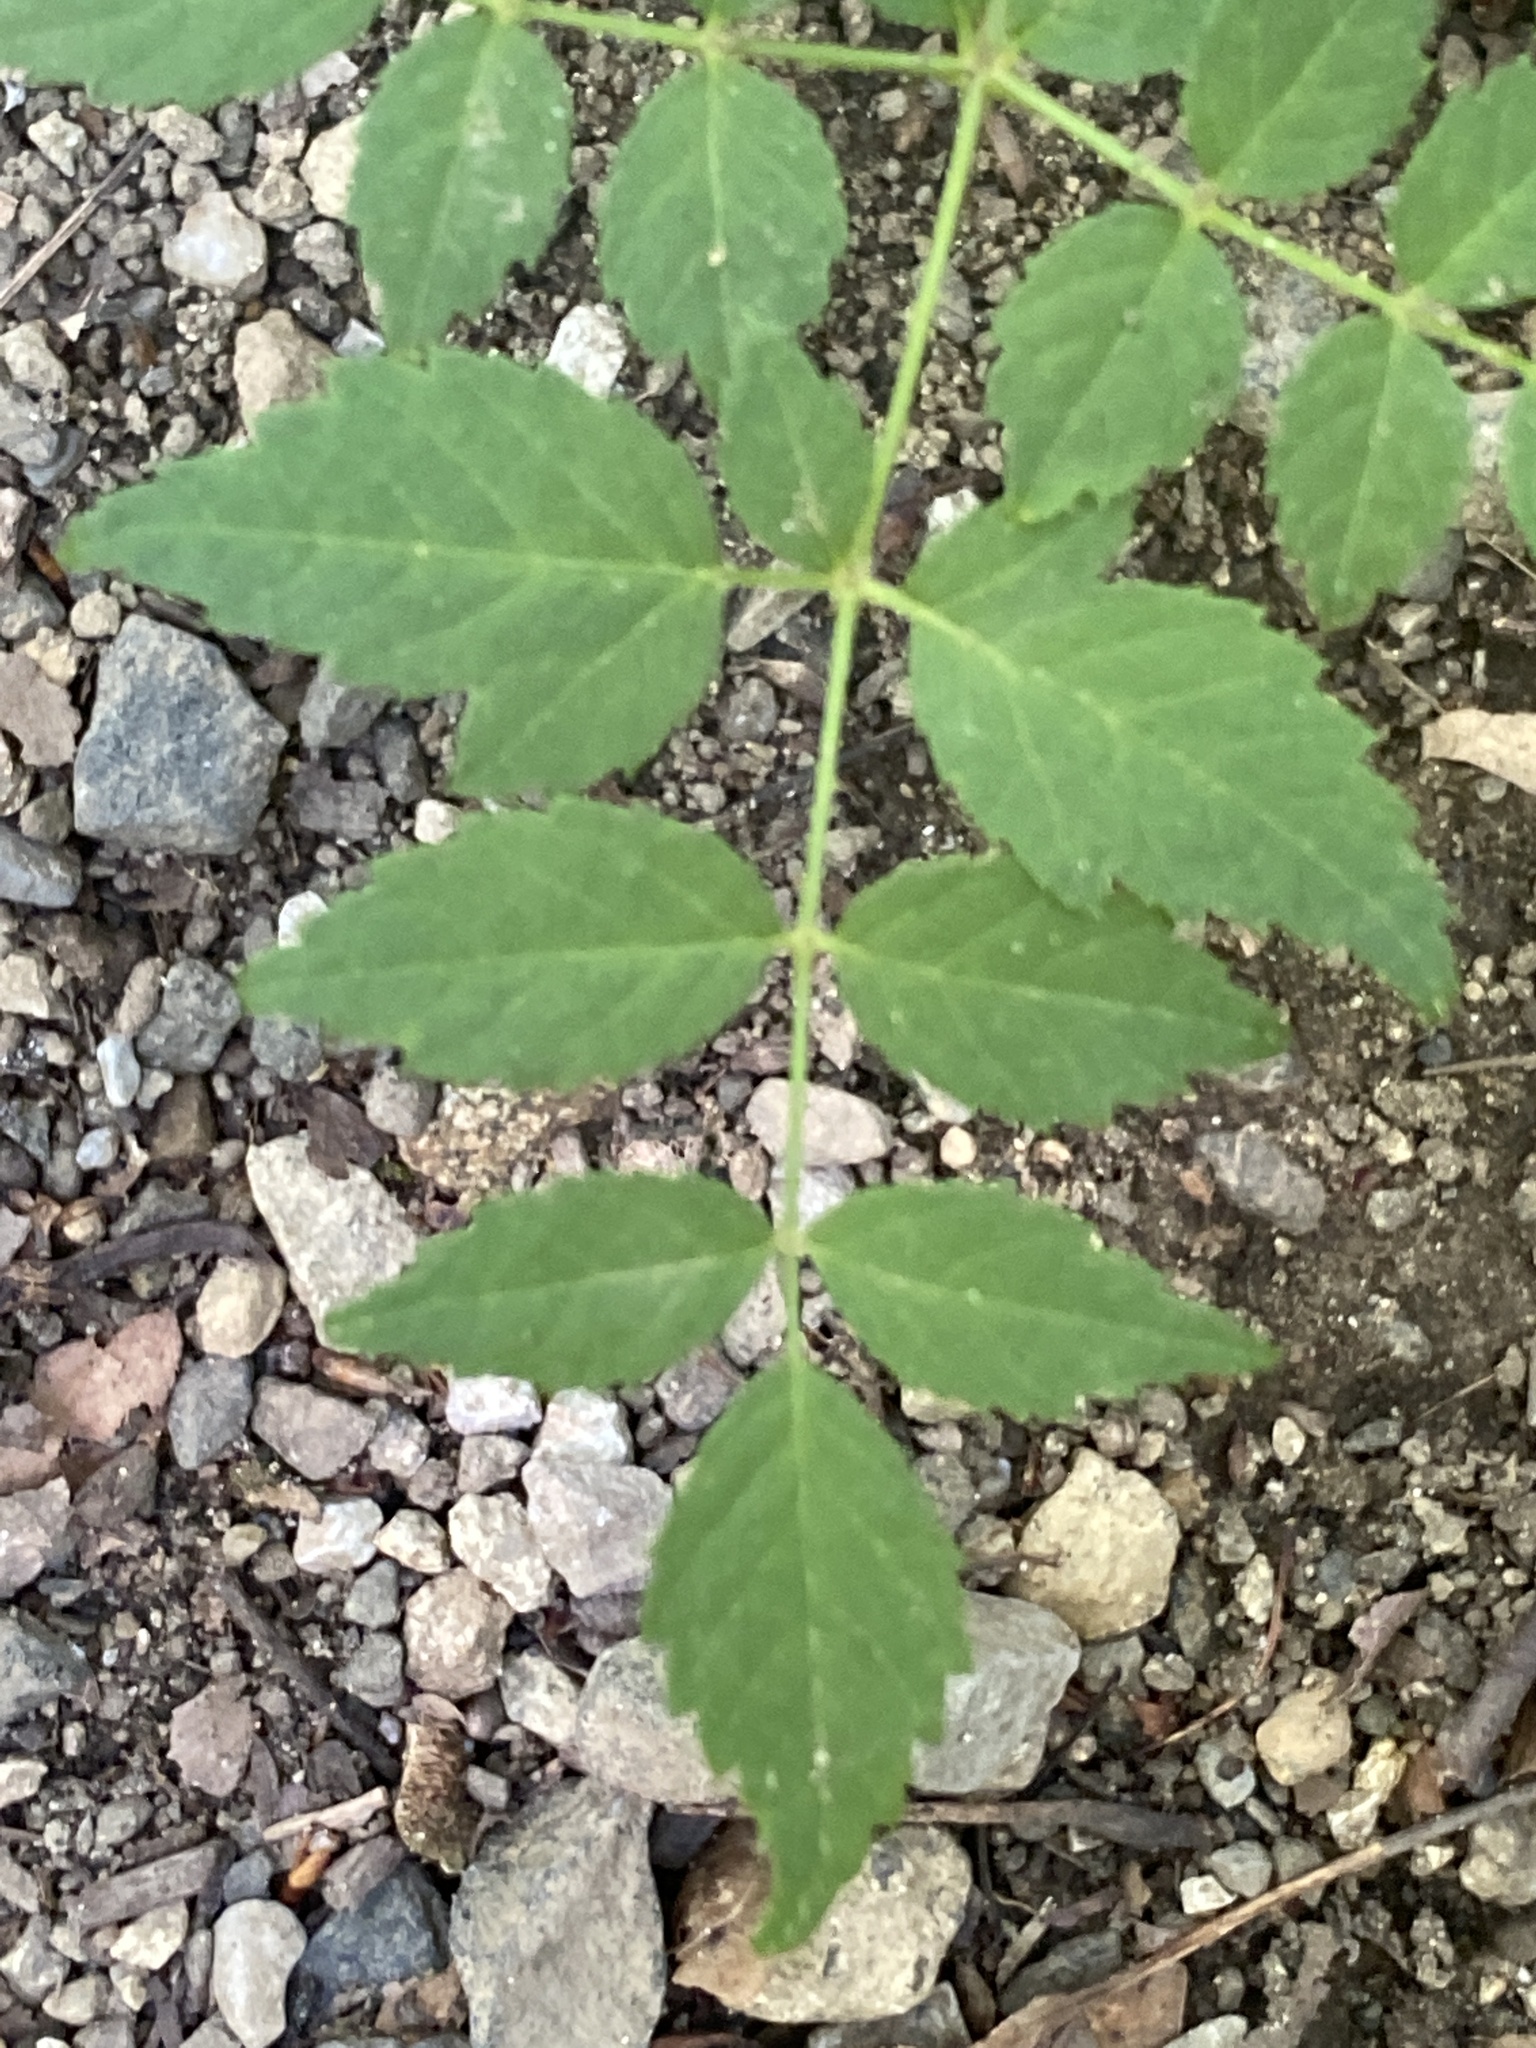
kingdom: Plantae
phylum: Tracheophyta
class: Magnoliopsida
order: Apiales
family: Araliaceae
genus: Aralia
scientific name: Aralia elata
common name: Japanese angelica-tree
